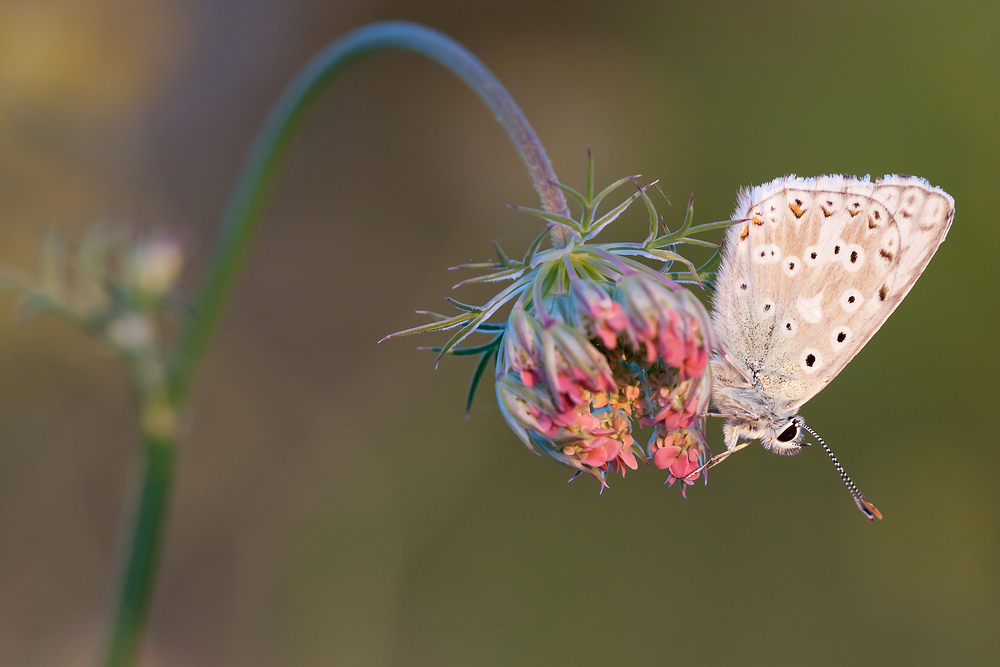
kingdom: Animalia
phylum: Arthropoda
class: Insecta
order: Lepidoptera
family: Lycaenidae
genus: Lysandra
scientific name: Lysandra coridon
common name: Chalkhill blue
